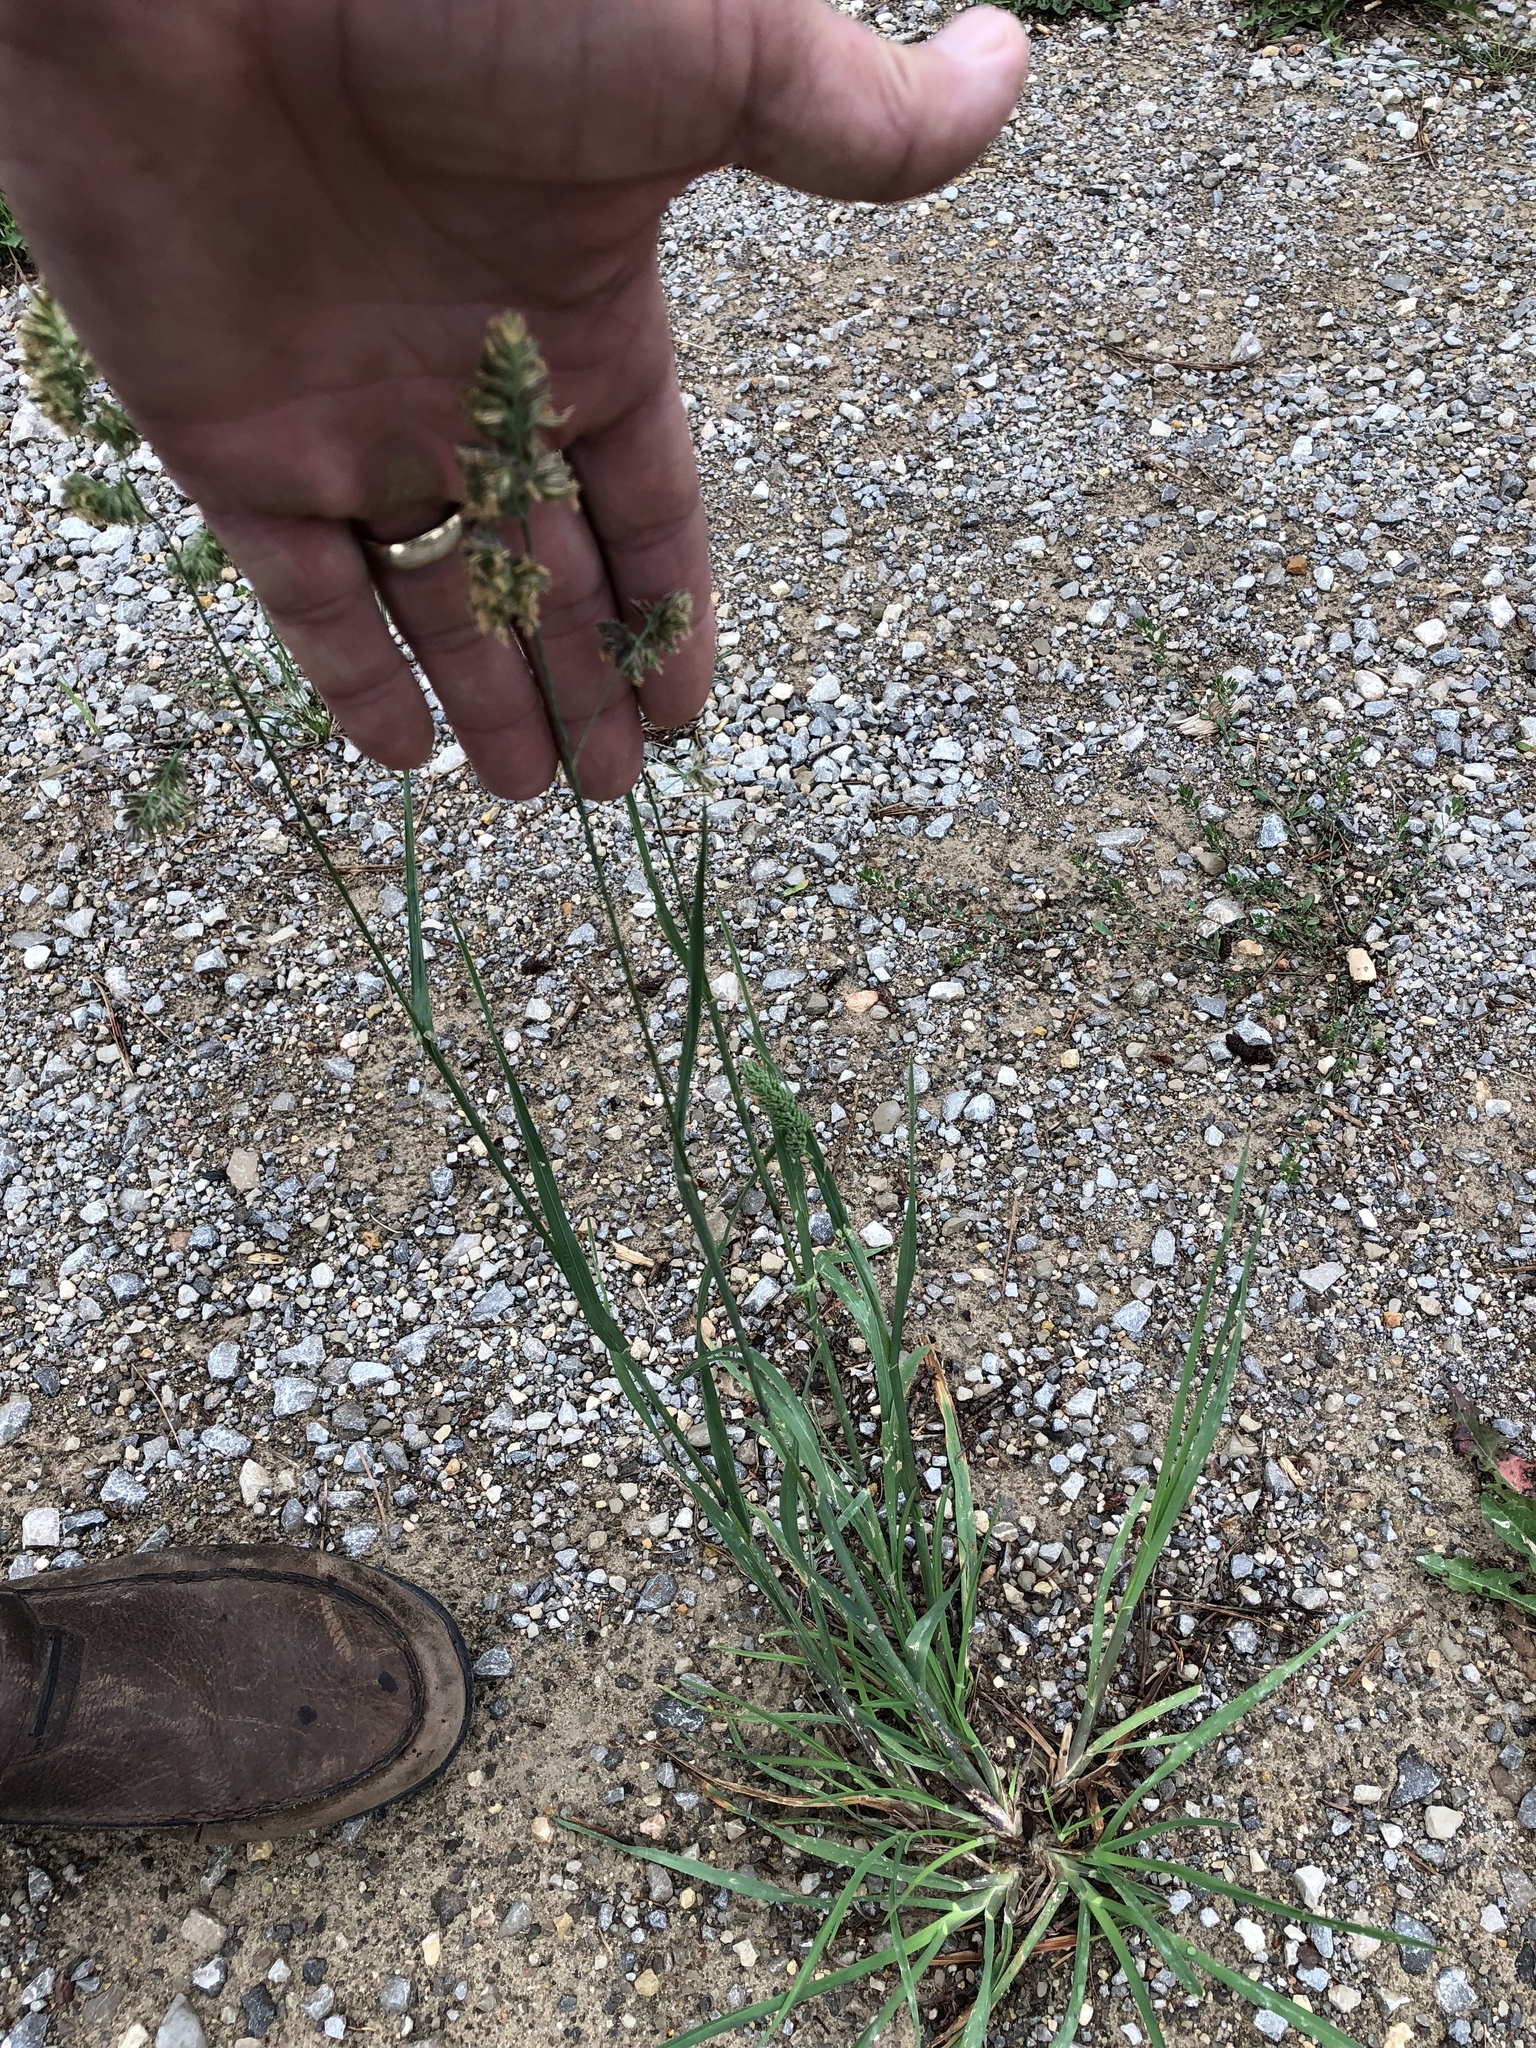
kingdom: Plantae
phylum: Tracheophyta
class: Liliopsida
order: Poales
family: Poaceae
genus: Dactylis
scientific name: Dactylis glomerata
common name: Orchardgrass
